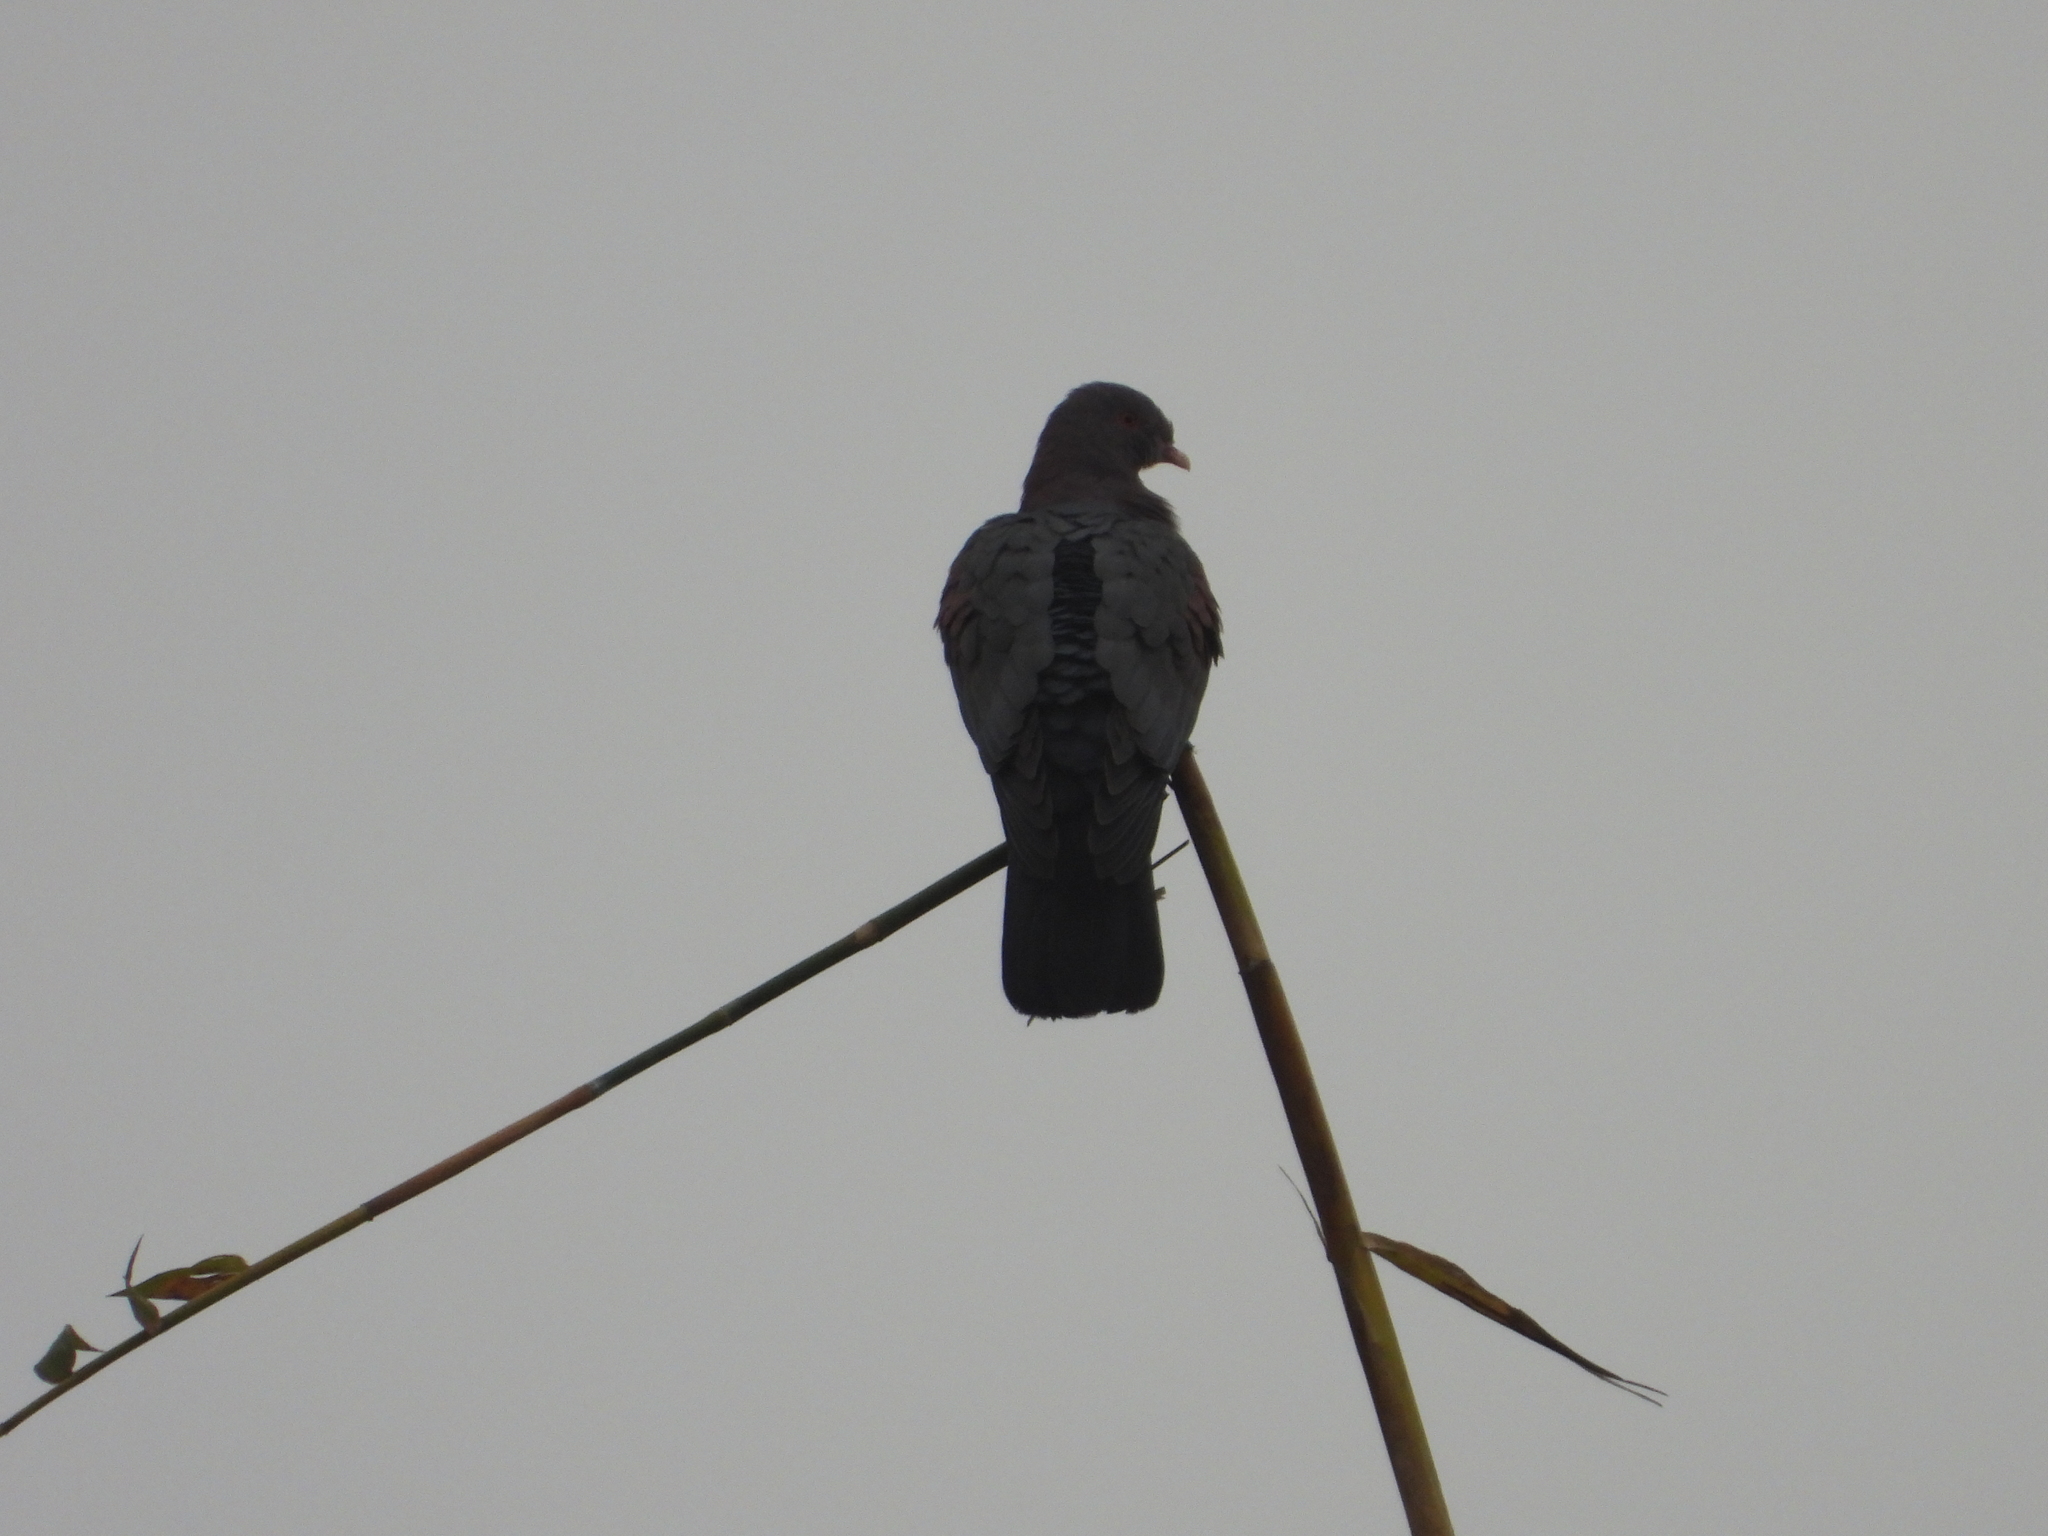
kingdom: Animalia
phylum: Chordata
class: Aves
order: Columbiformes
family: Columbidae
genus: Patagioenas
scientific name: Patagioenas flavirostris
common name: Red-billed pigeon
